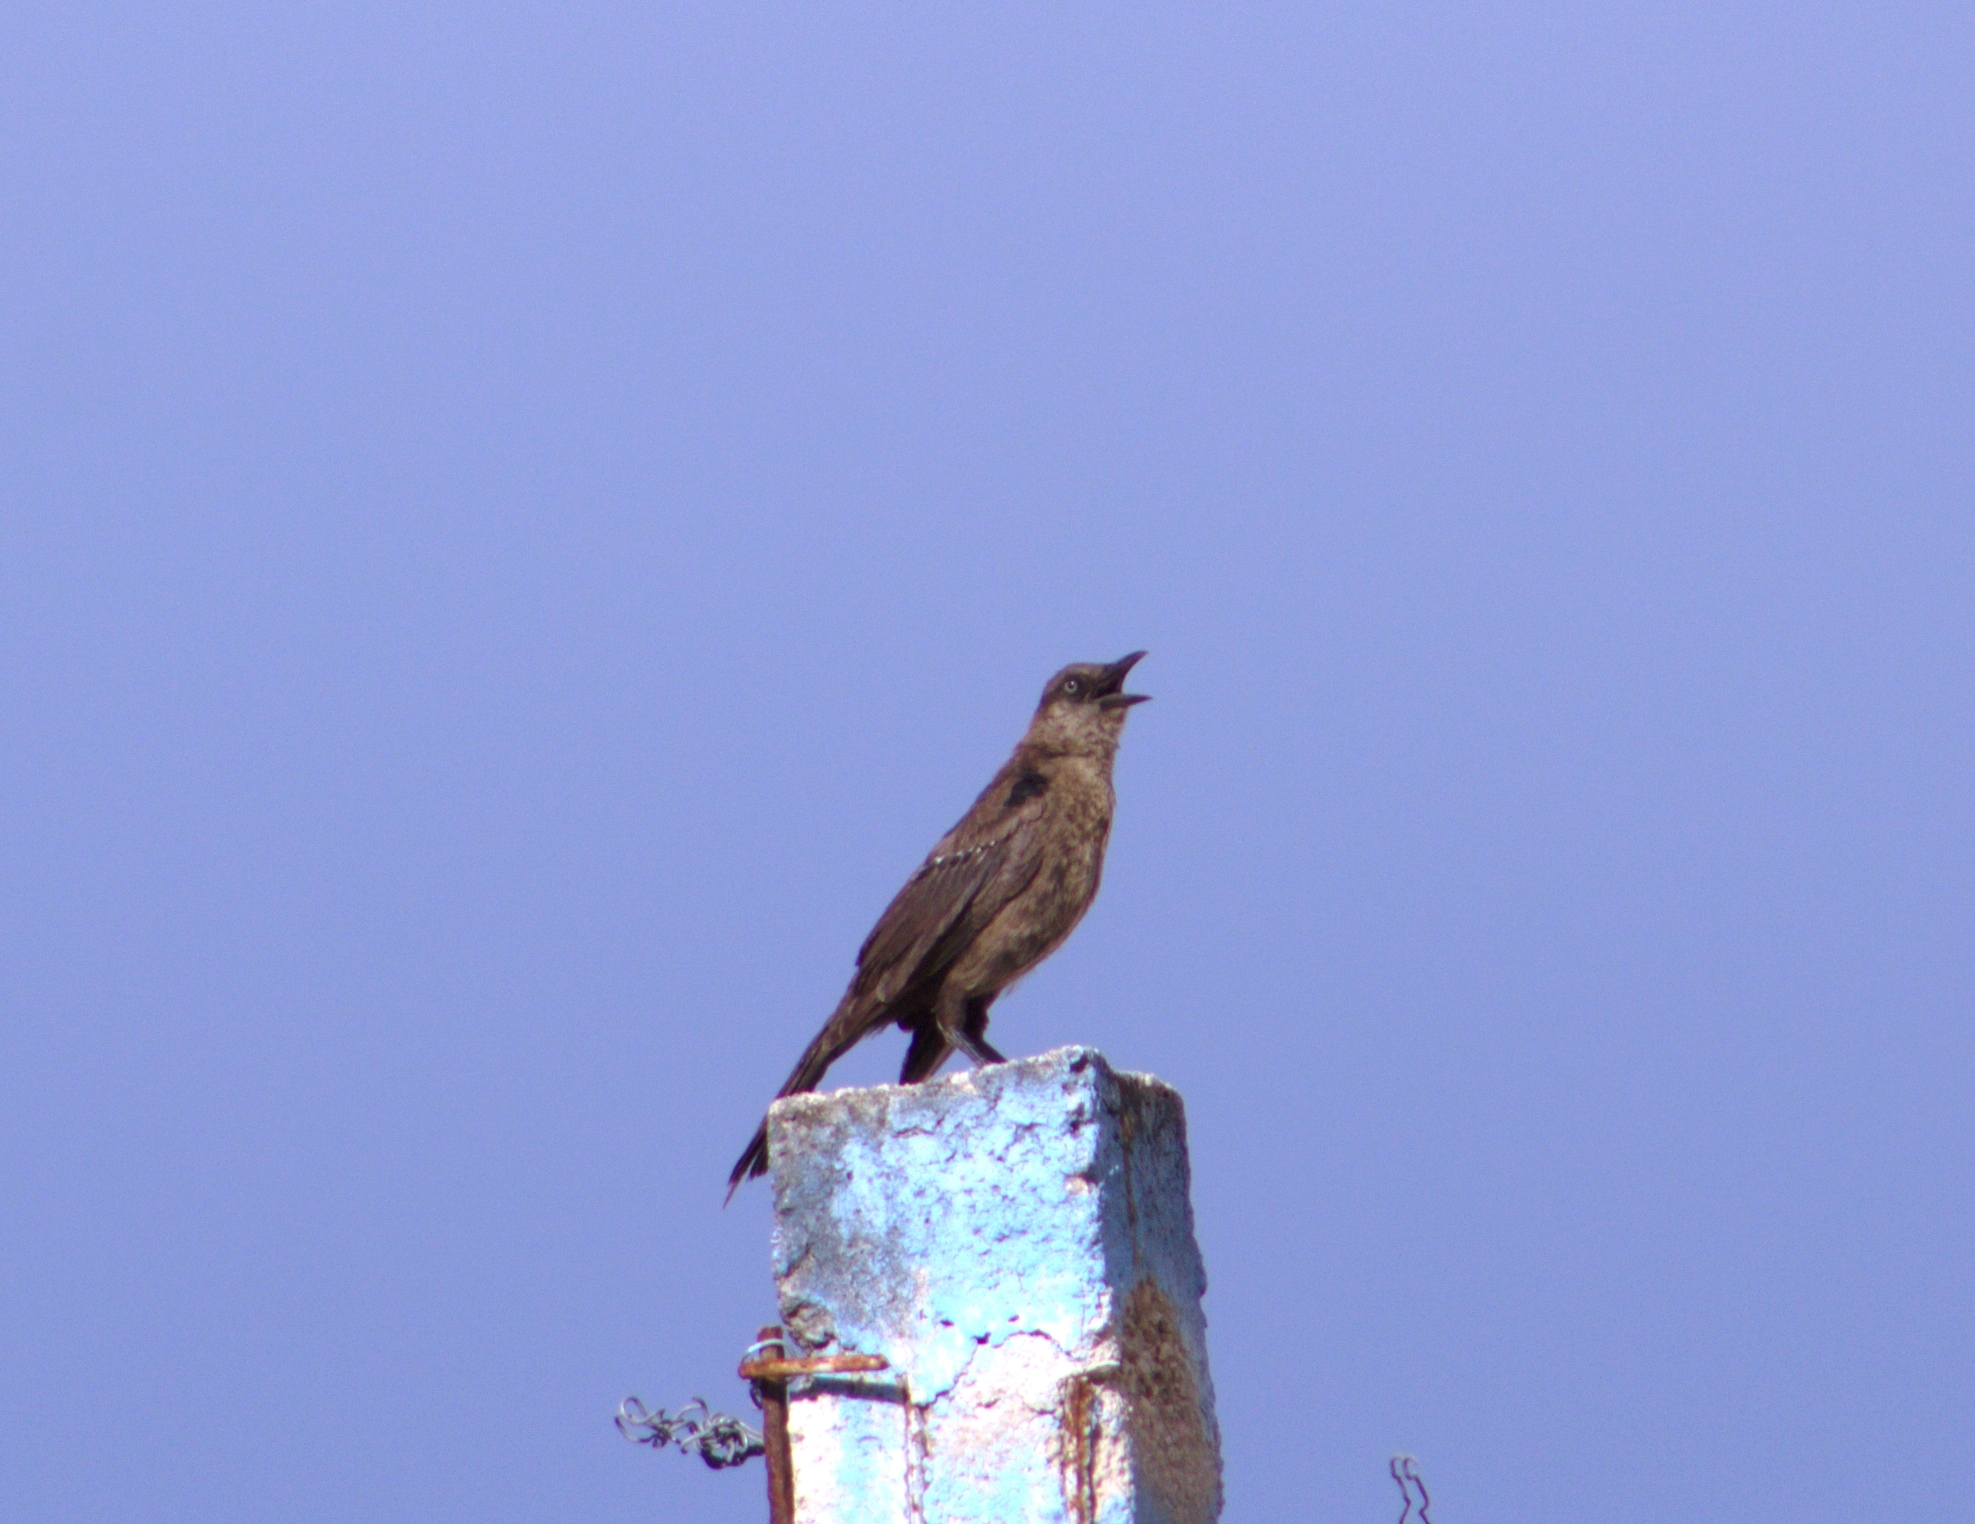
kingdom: Animalia
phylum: Chordata
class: Aves
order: Passeriformes
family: Icteridae
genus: Quiscalus
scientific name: Quiscalus mexicanus
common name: Great-tailed grackle
